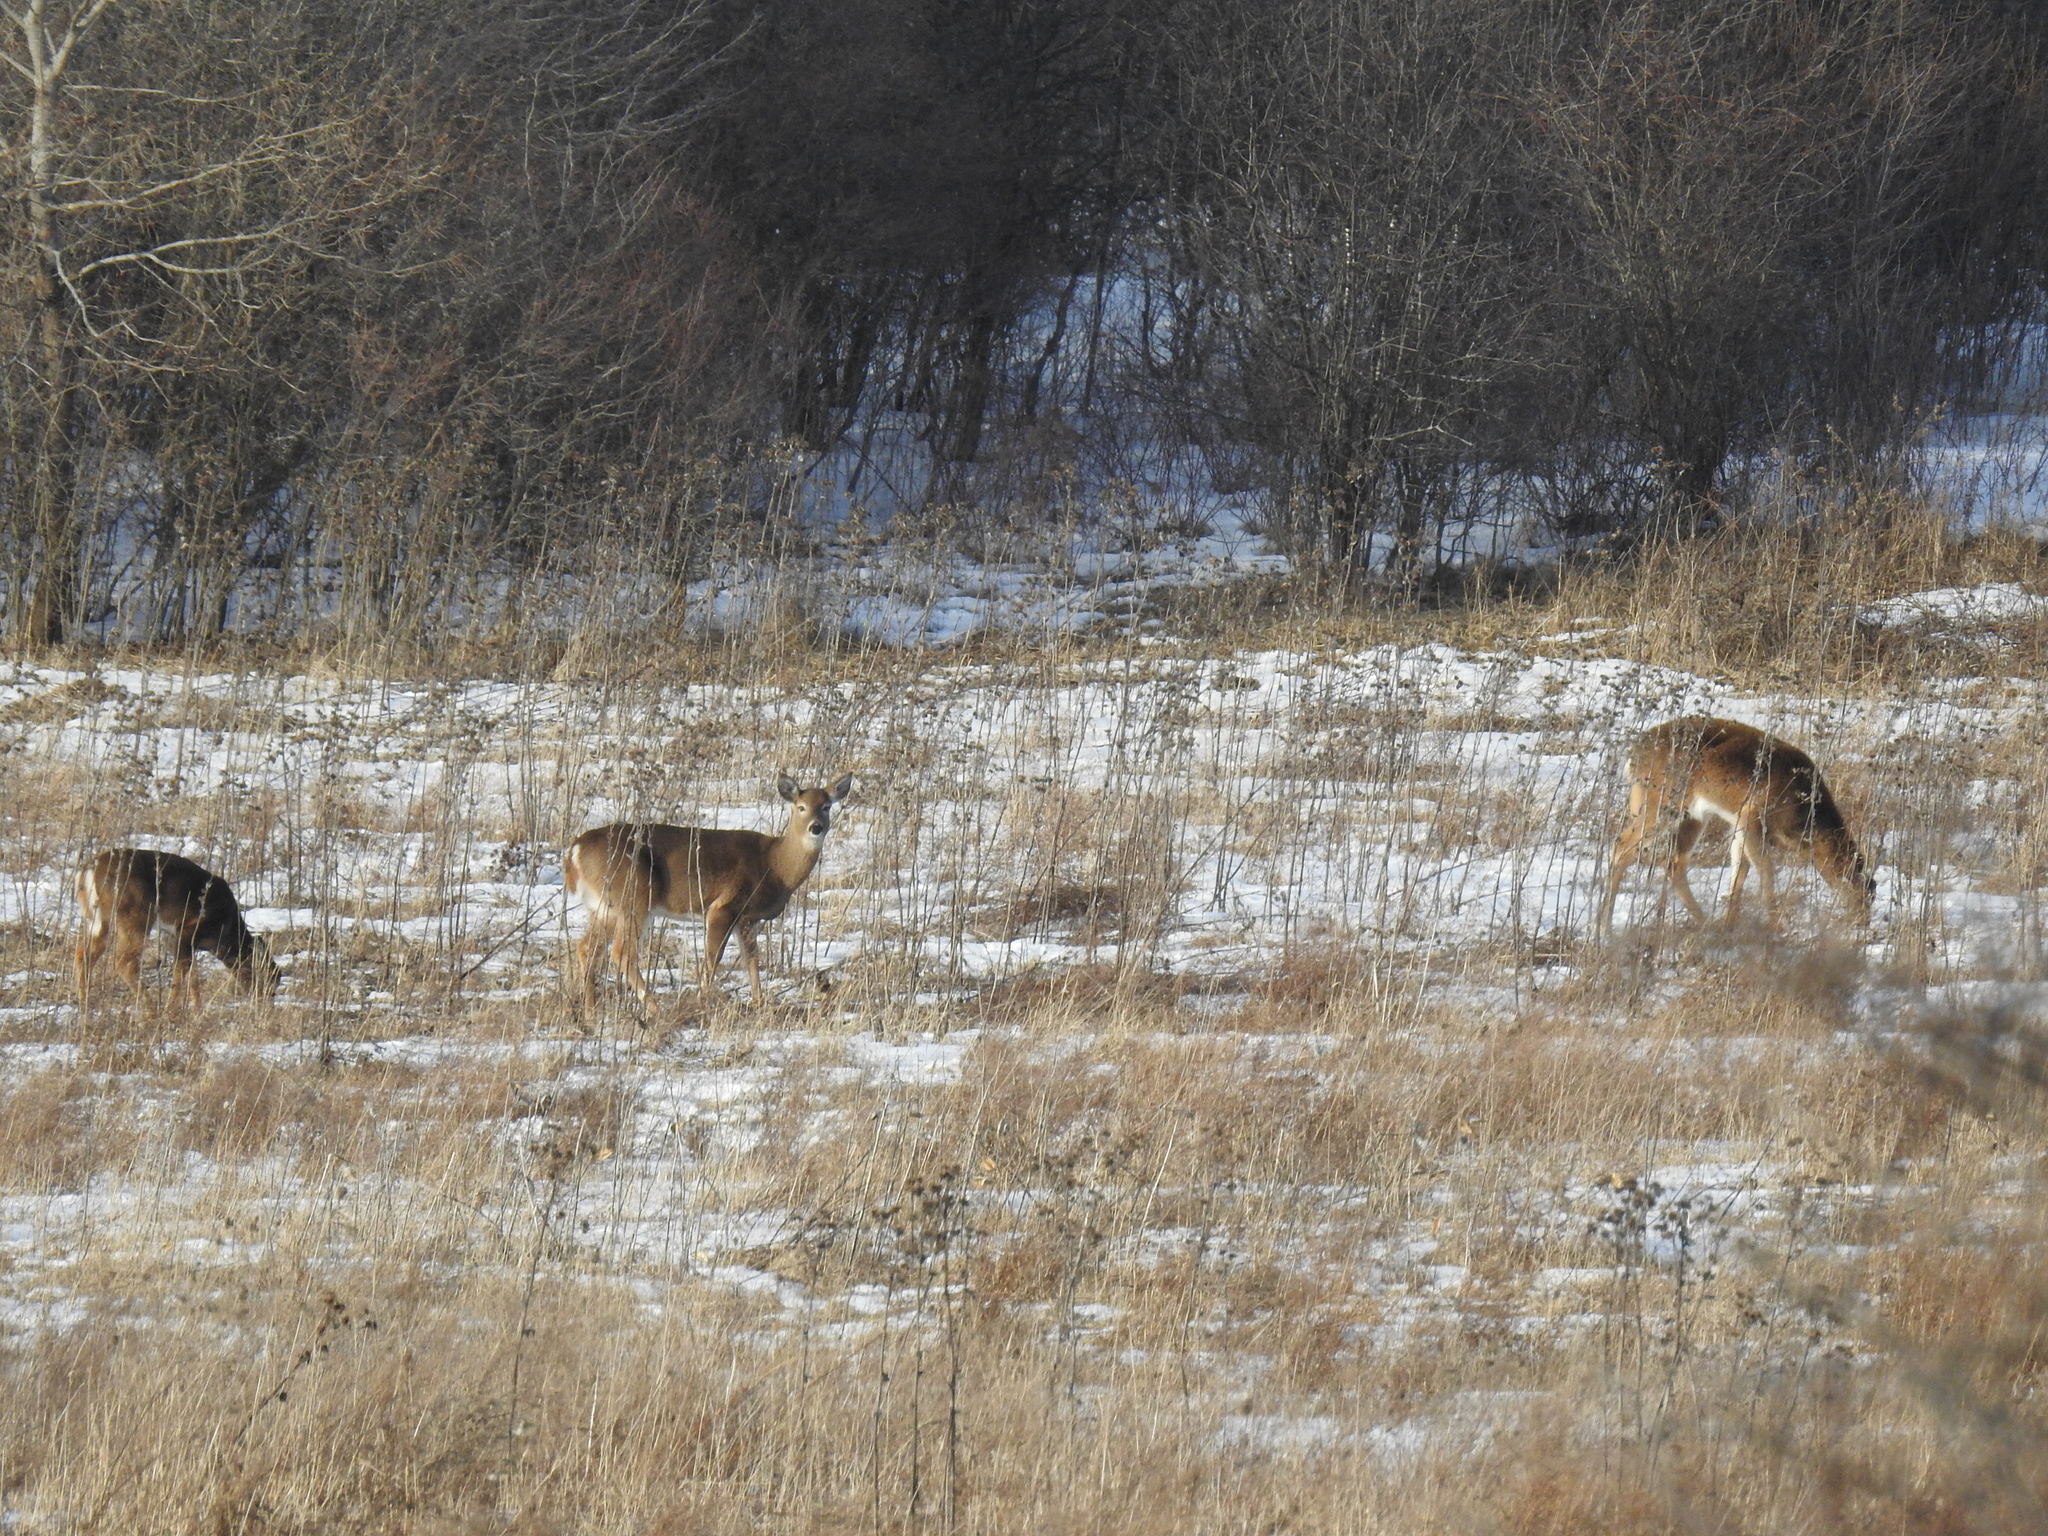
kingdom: Animalia
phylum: Chordata
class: Mammalia
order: Artiodactyla
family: Cervidae
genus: Odocoileus
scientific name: Odocoileus virginianus
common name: White-tailed deer
